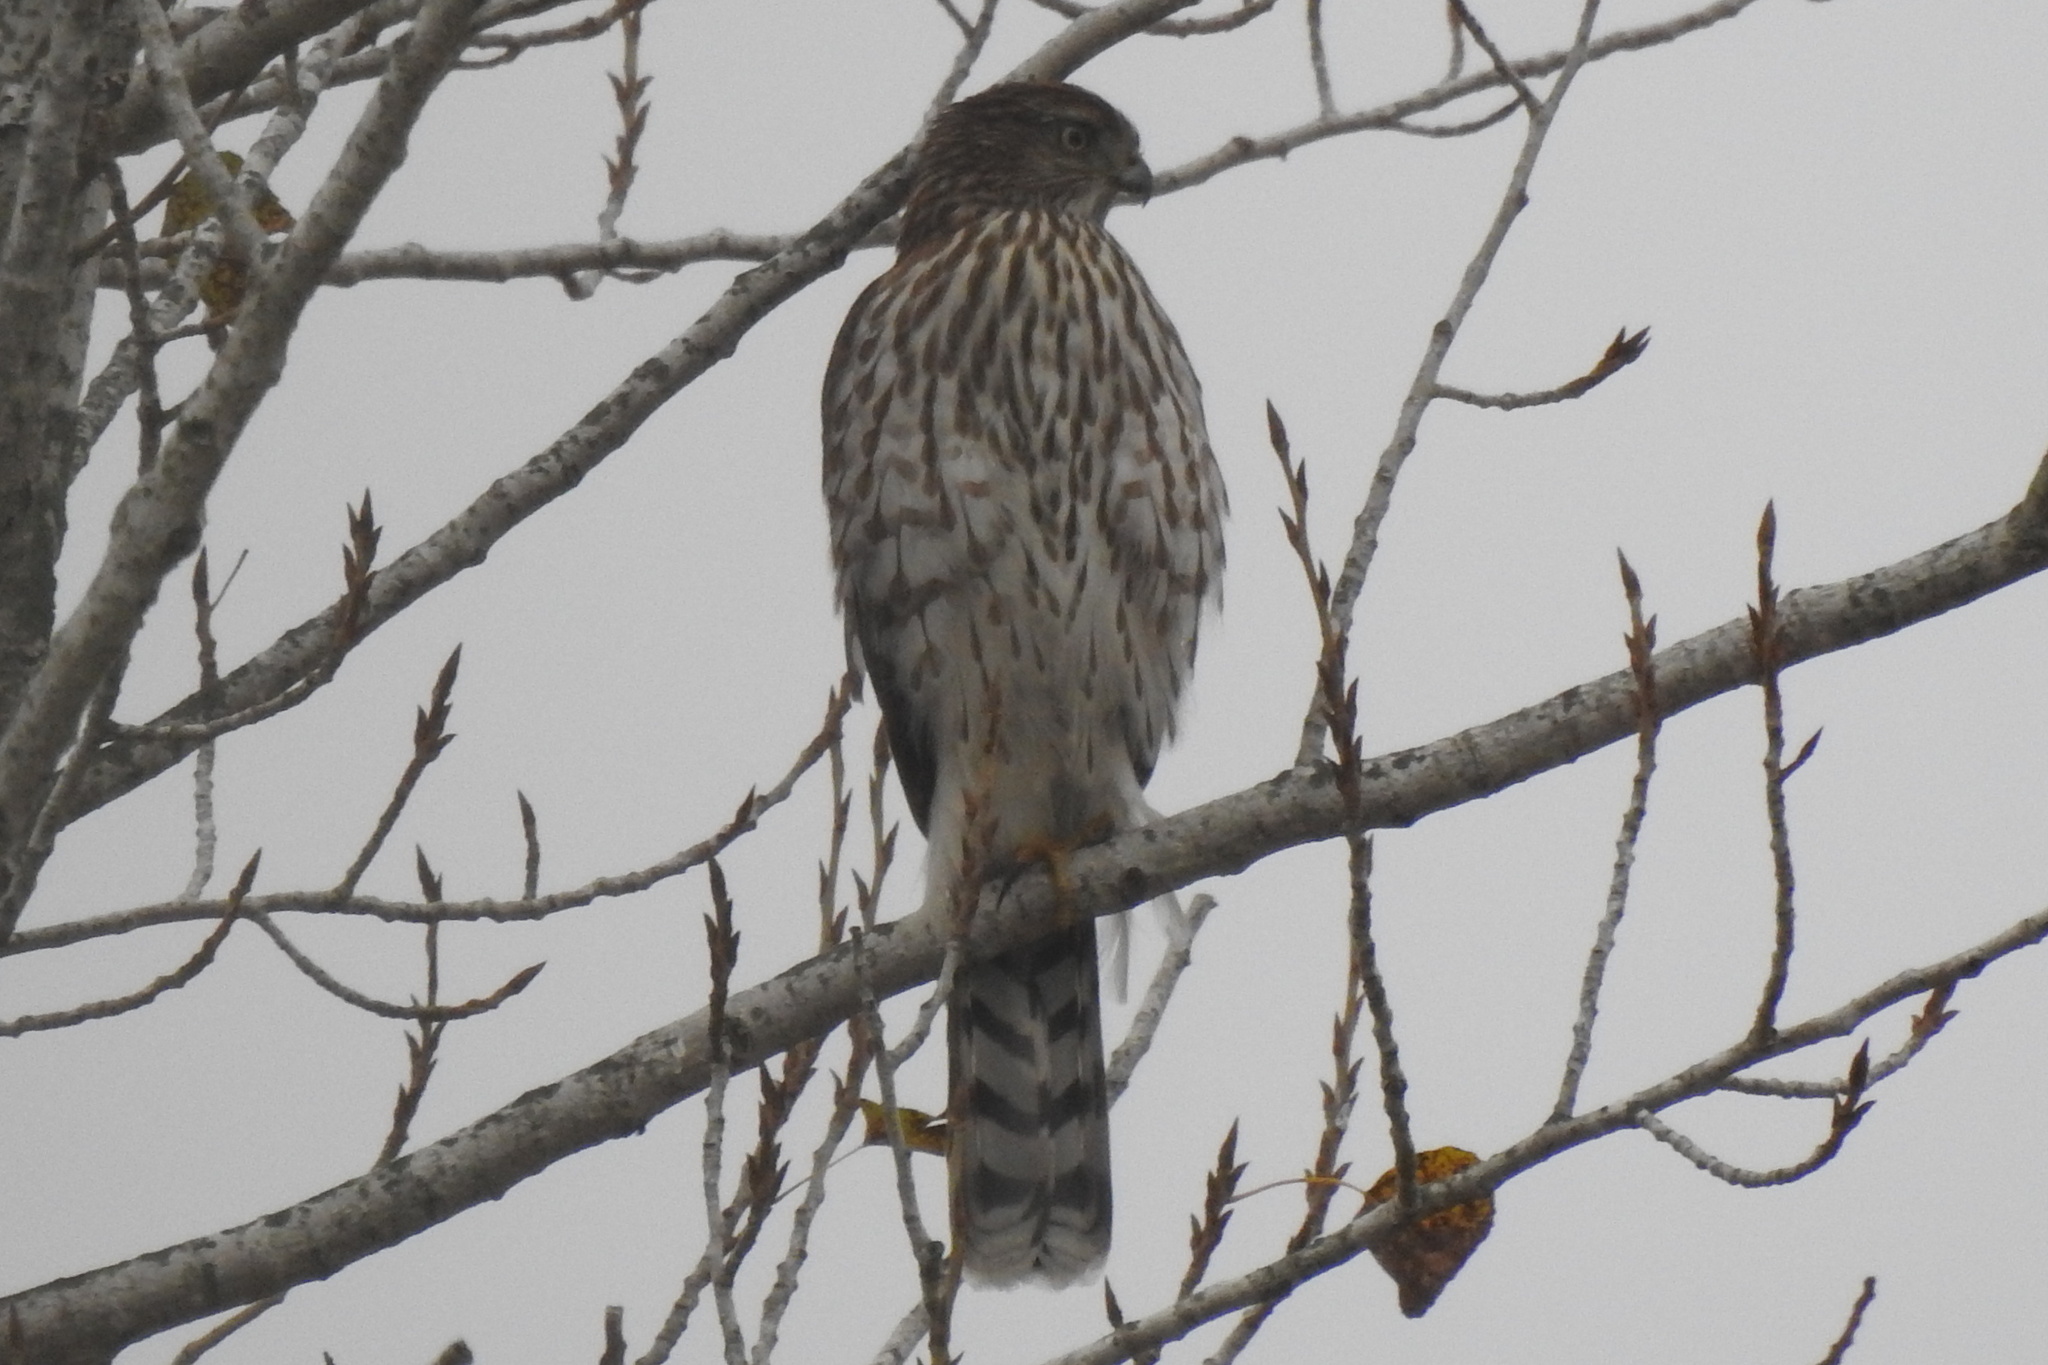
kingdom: Animalia
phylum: Chordata
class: Aves
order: Accipitriformes
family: Accipitridae
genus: Accipiter
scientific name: Accipiter cooperii
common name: Cooper's hawk
